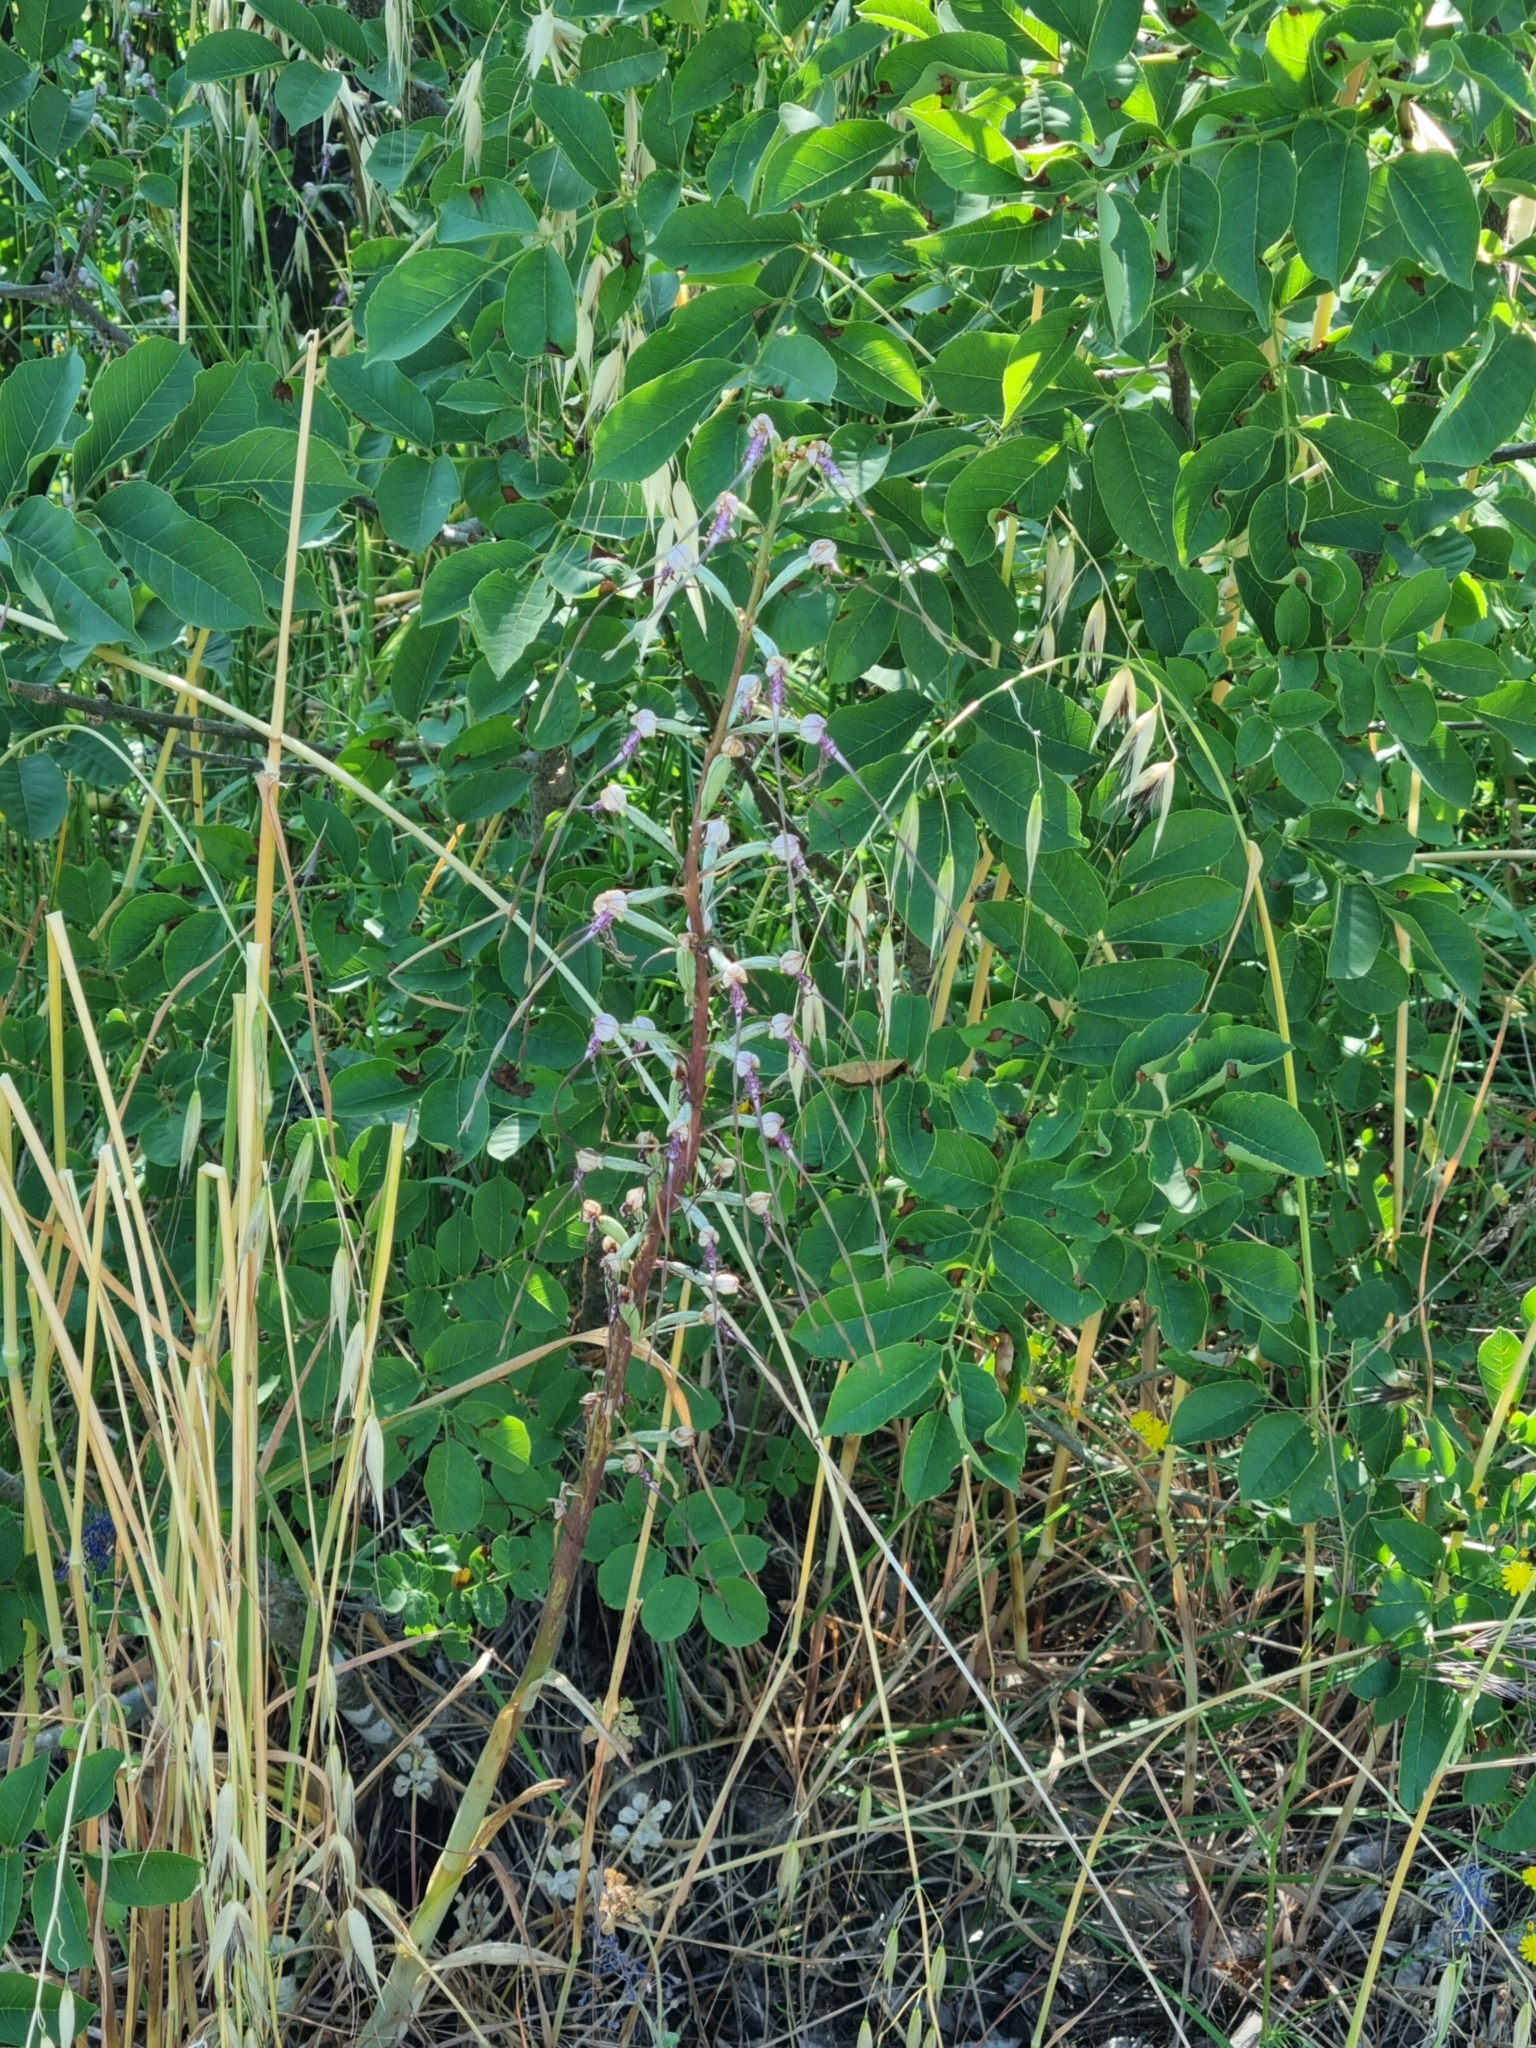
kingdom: Plantae
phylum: Tracheophyta
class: Liliopsida
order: Asparagales
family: Orchidaceae
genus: Himantoglossum
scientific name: Himantoglossum adriaticum
